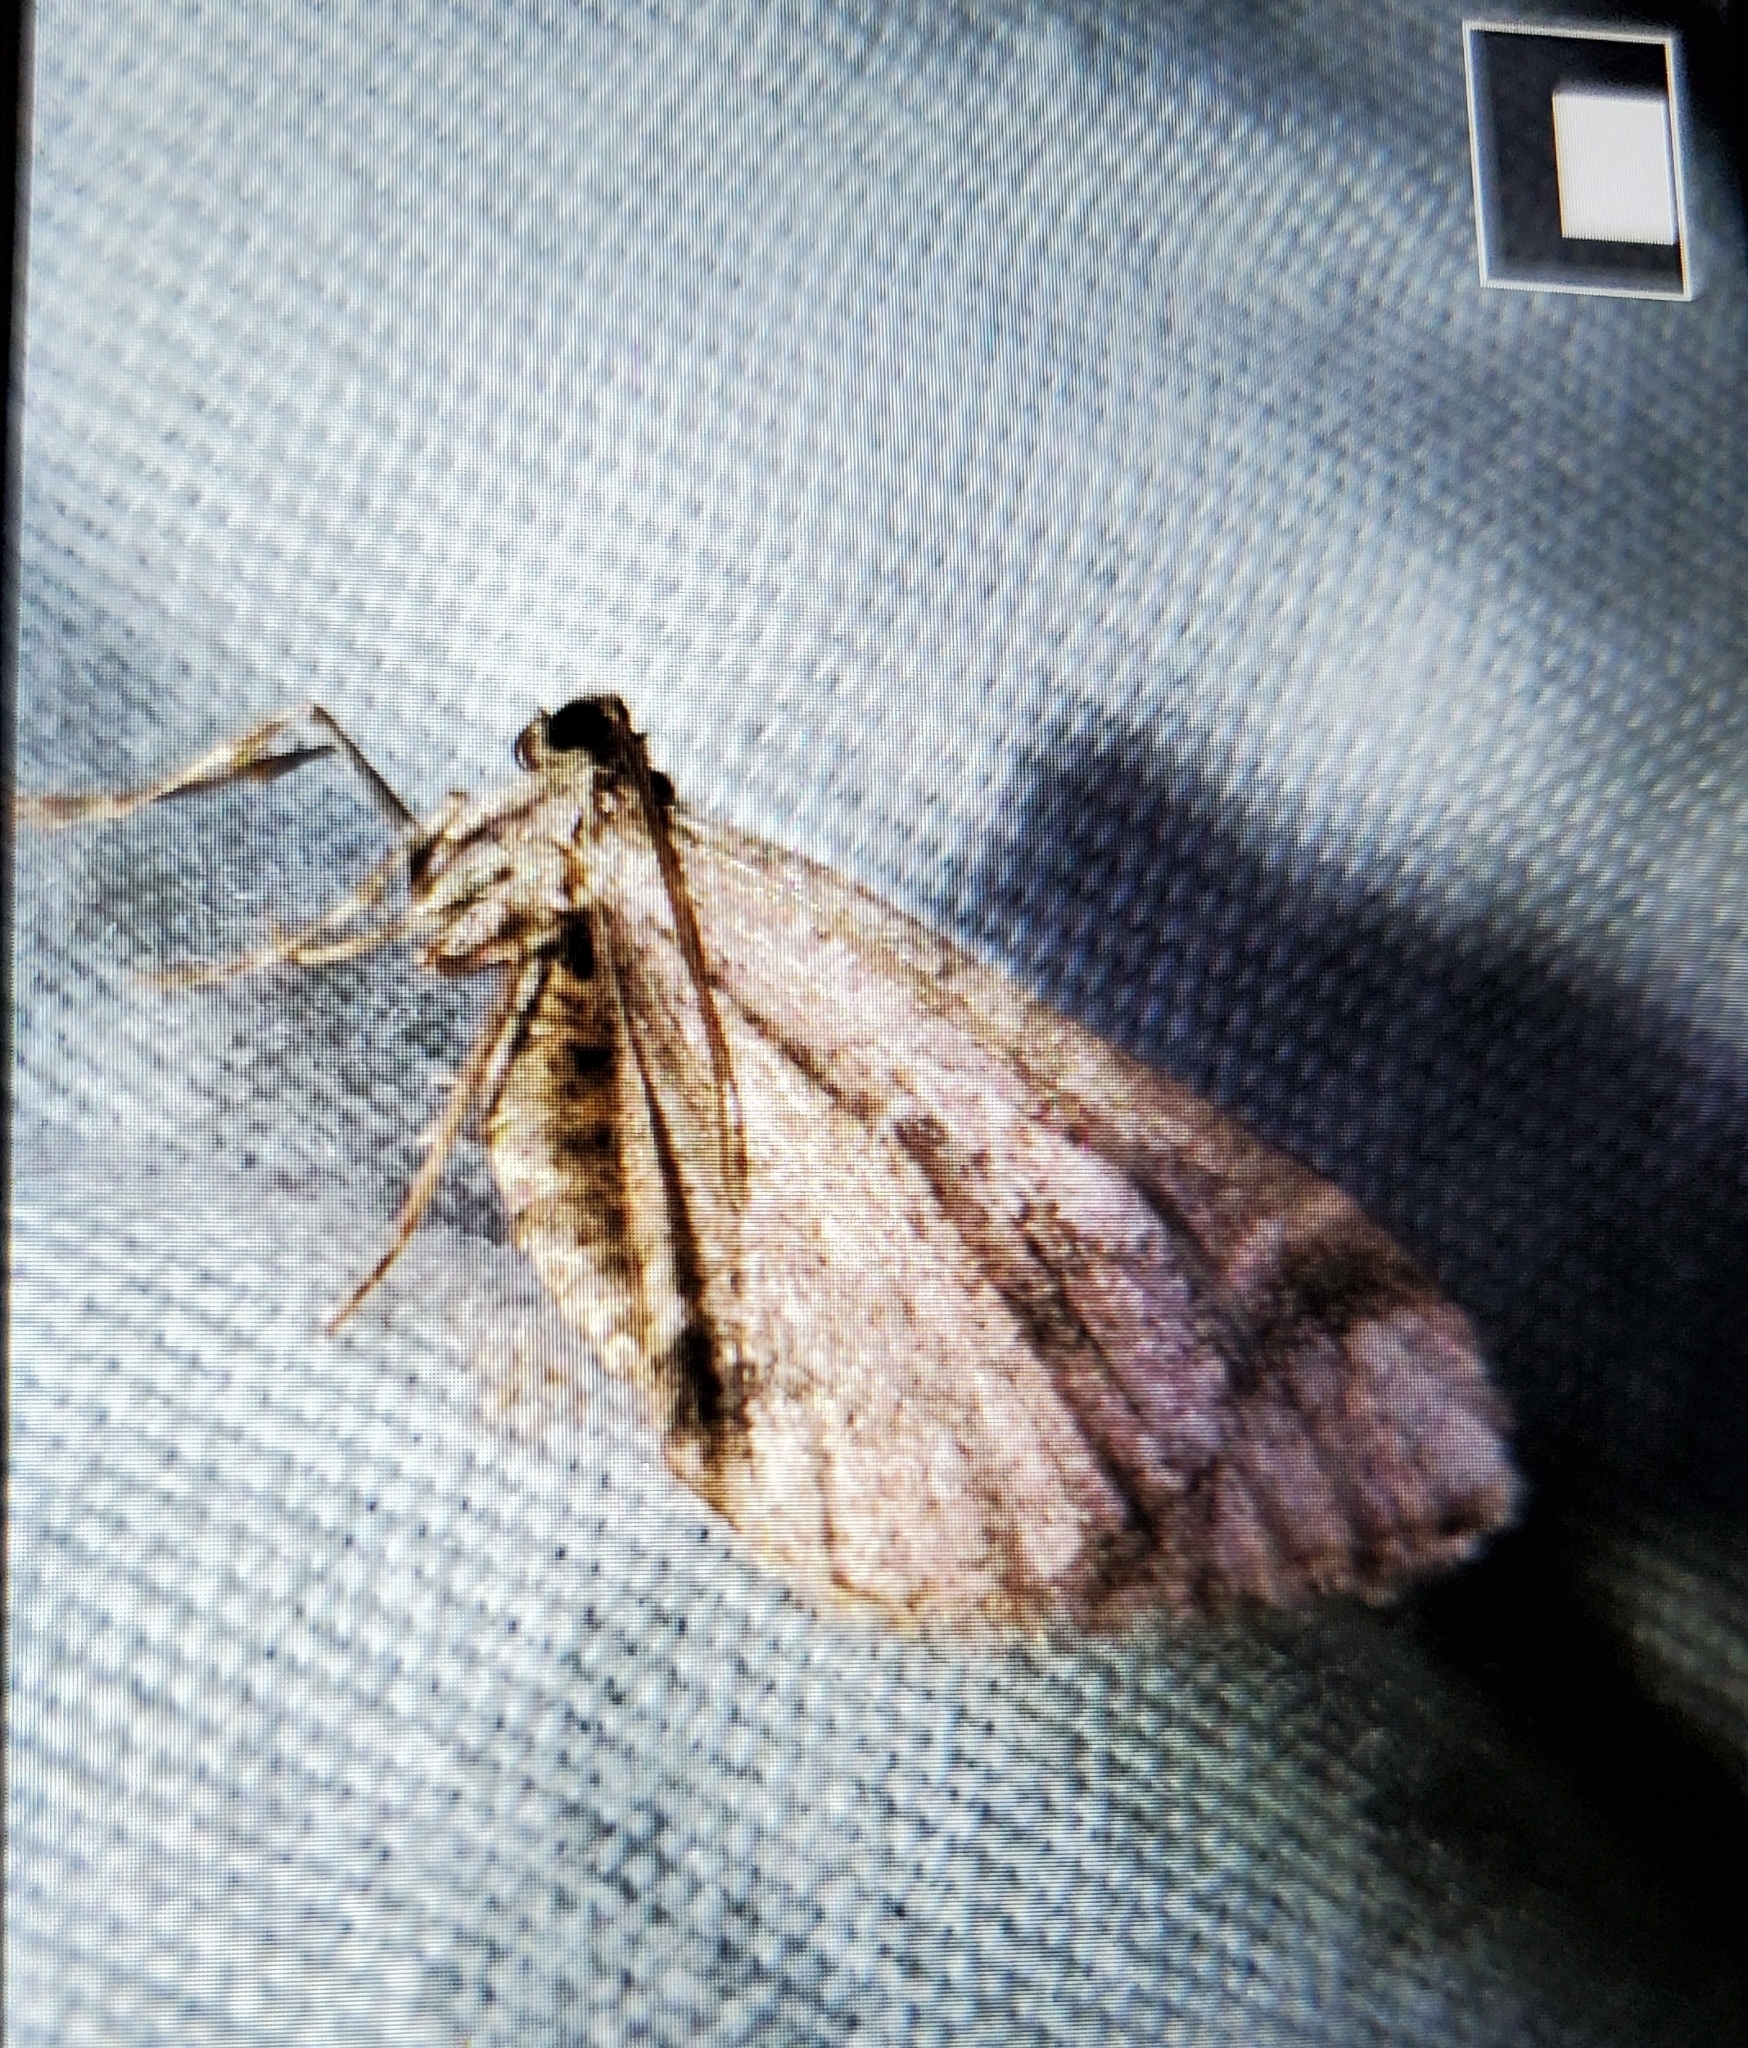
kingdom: Animalia
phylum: Arthropoda
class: Insecta
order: Lepidoptera
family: Geometridae
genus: Stamnodes
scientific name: Stamnodes albiapicata
